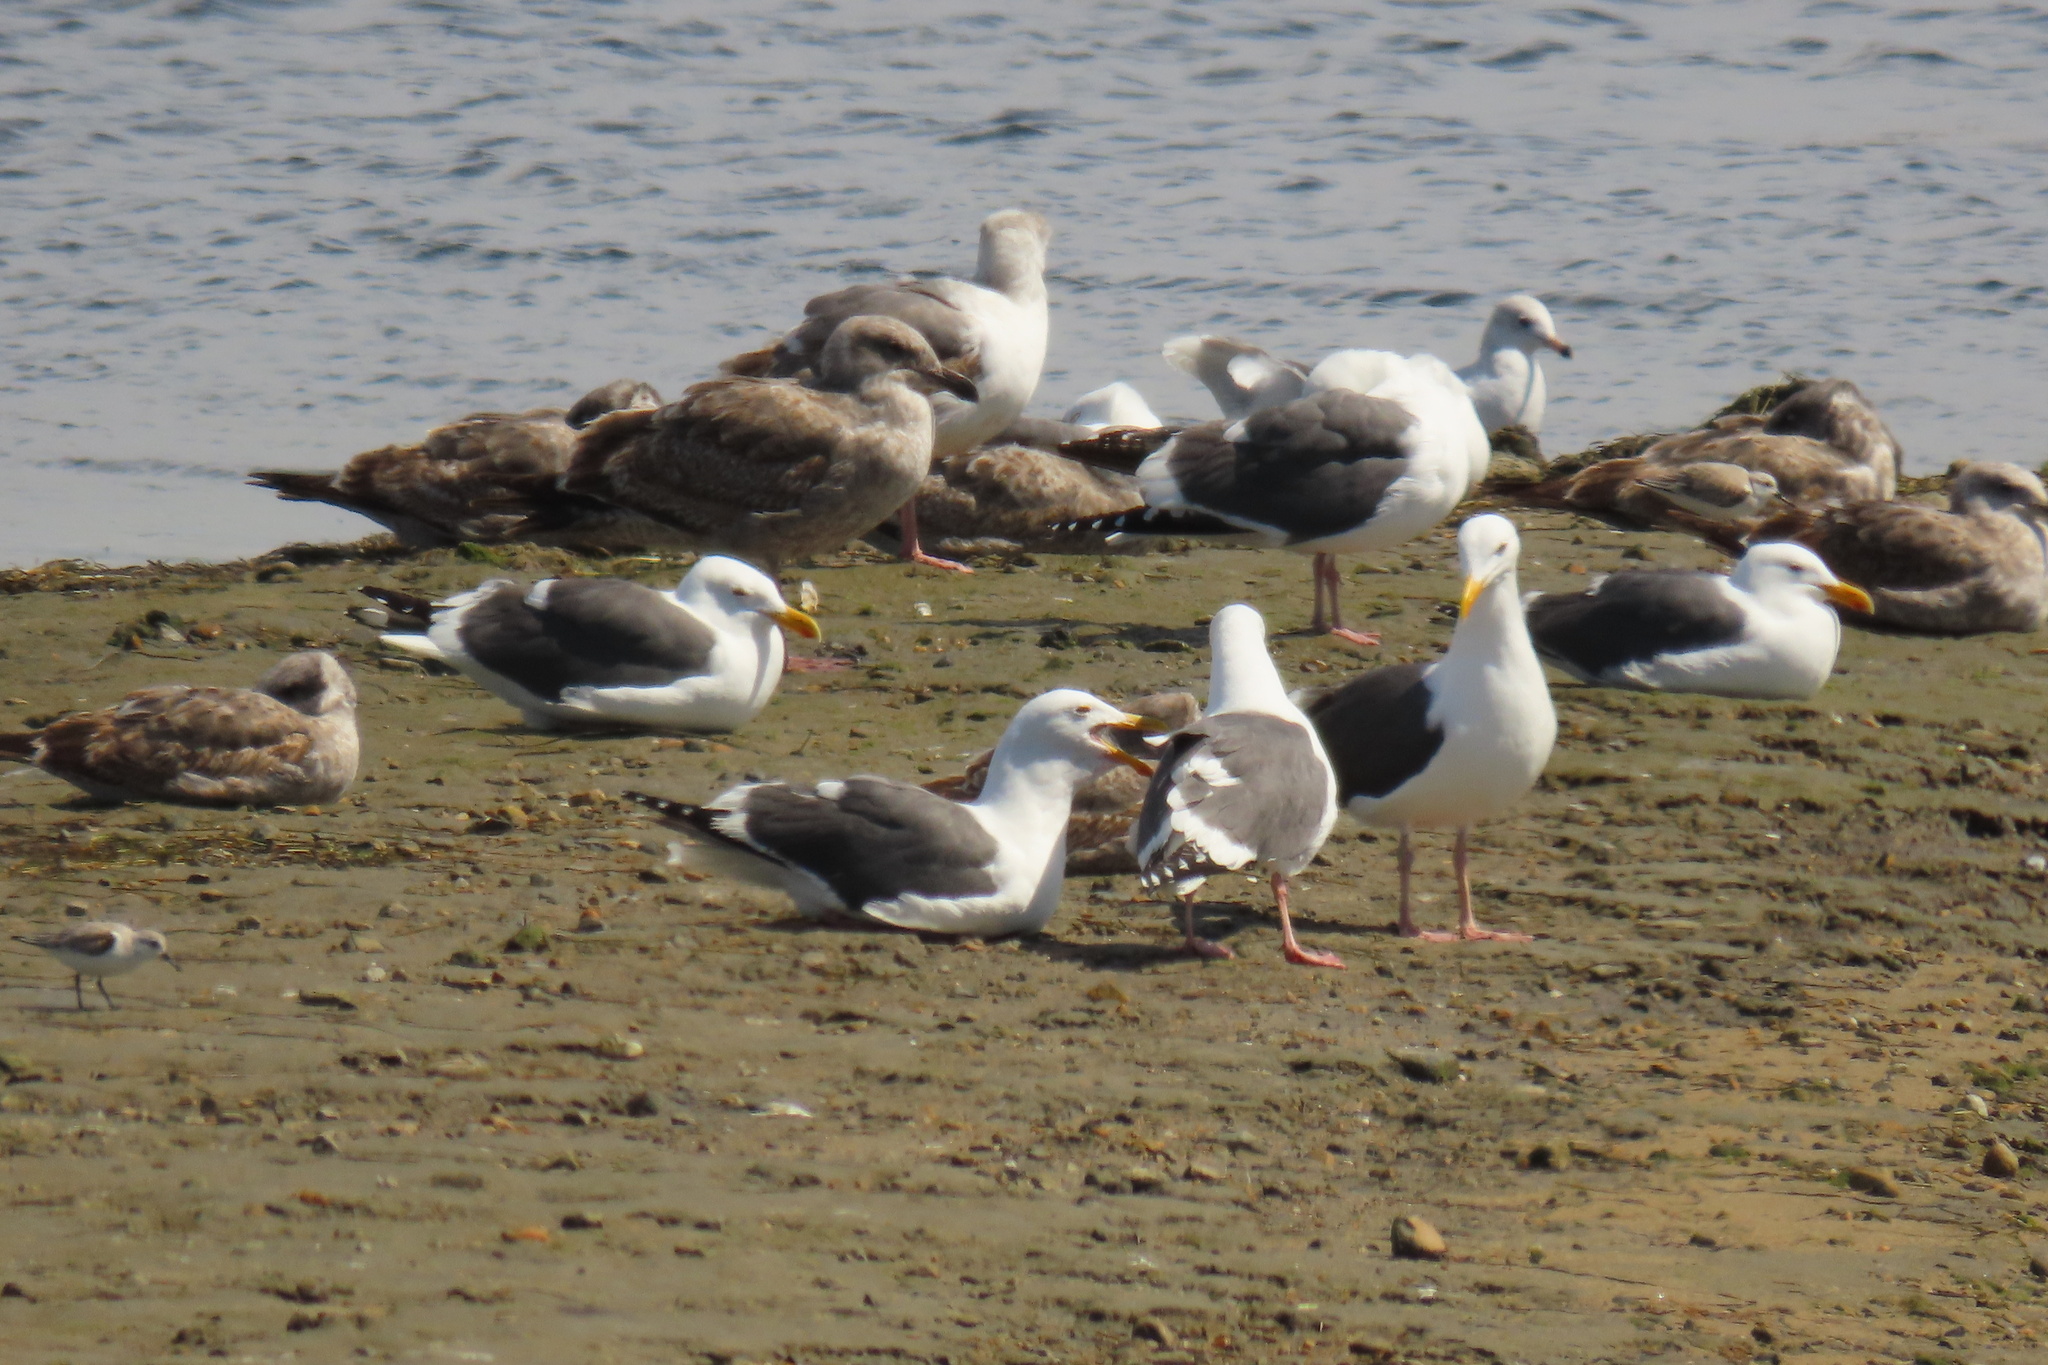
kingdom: Animalia
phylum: Chordata
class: Aves
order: Charadriiformes
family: Scolopacidae
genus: Calidris
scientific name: Calidris alba
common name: Sanderling
